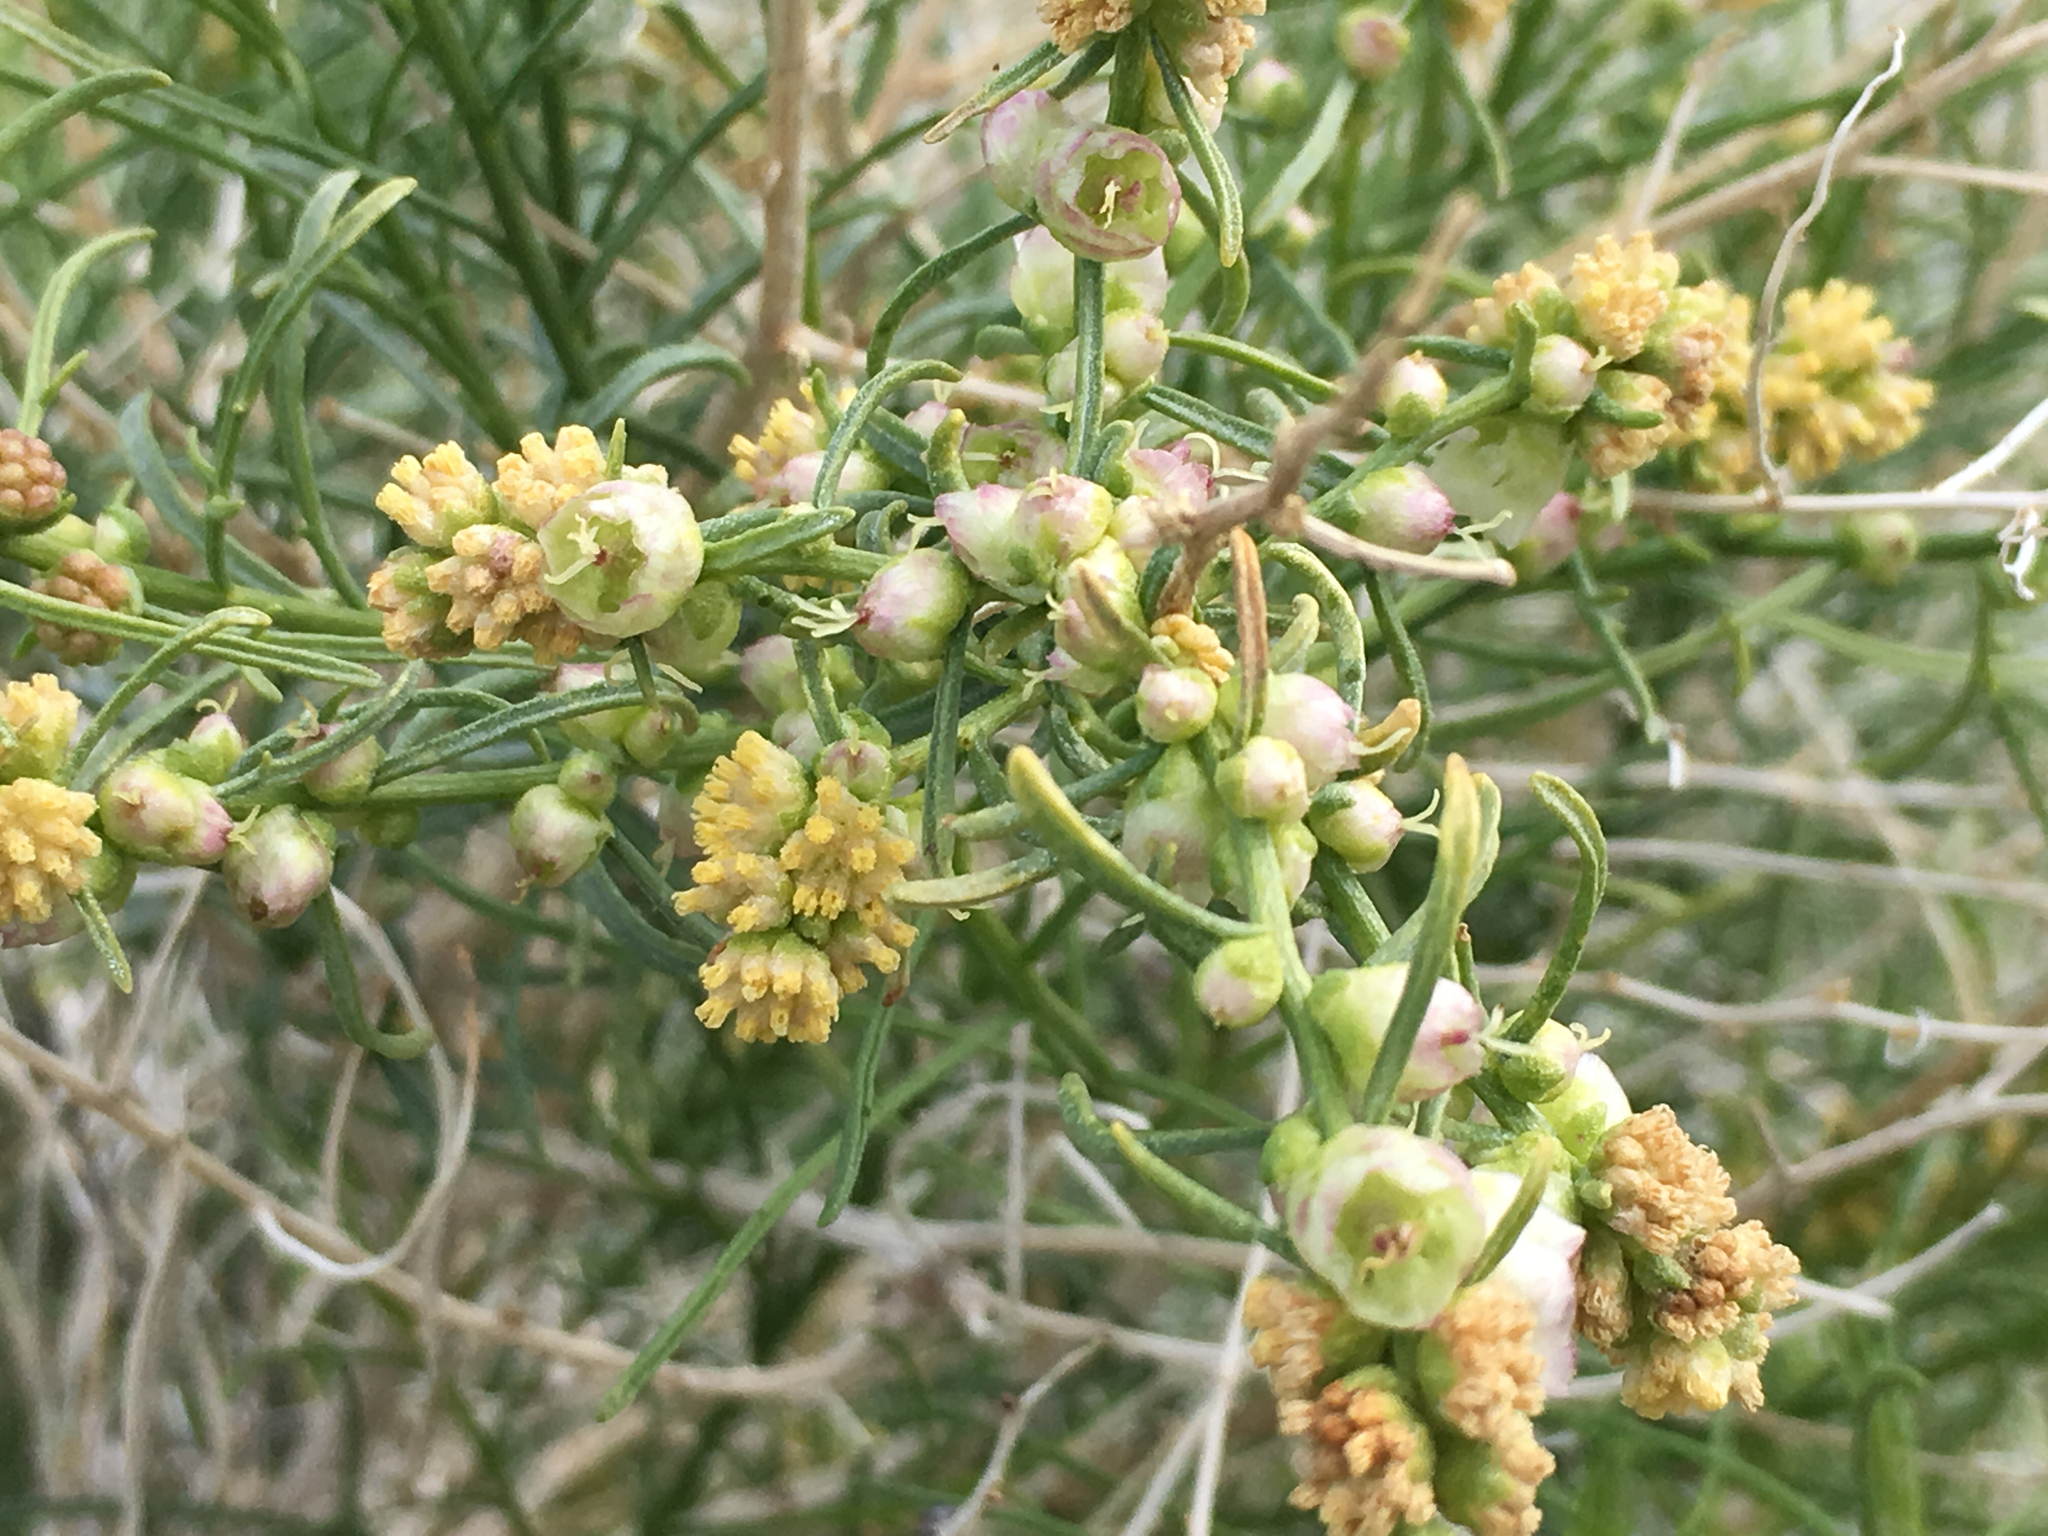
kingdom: Plantae
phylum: Tracheophyta
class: Magnoliopsida
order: Asterales
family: Asteraceae
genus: Ambrosia
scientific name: Ambrosia salsola
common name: Burrobrush
